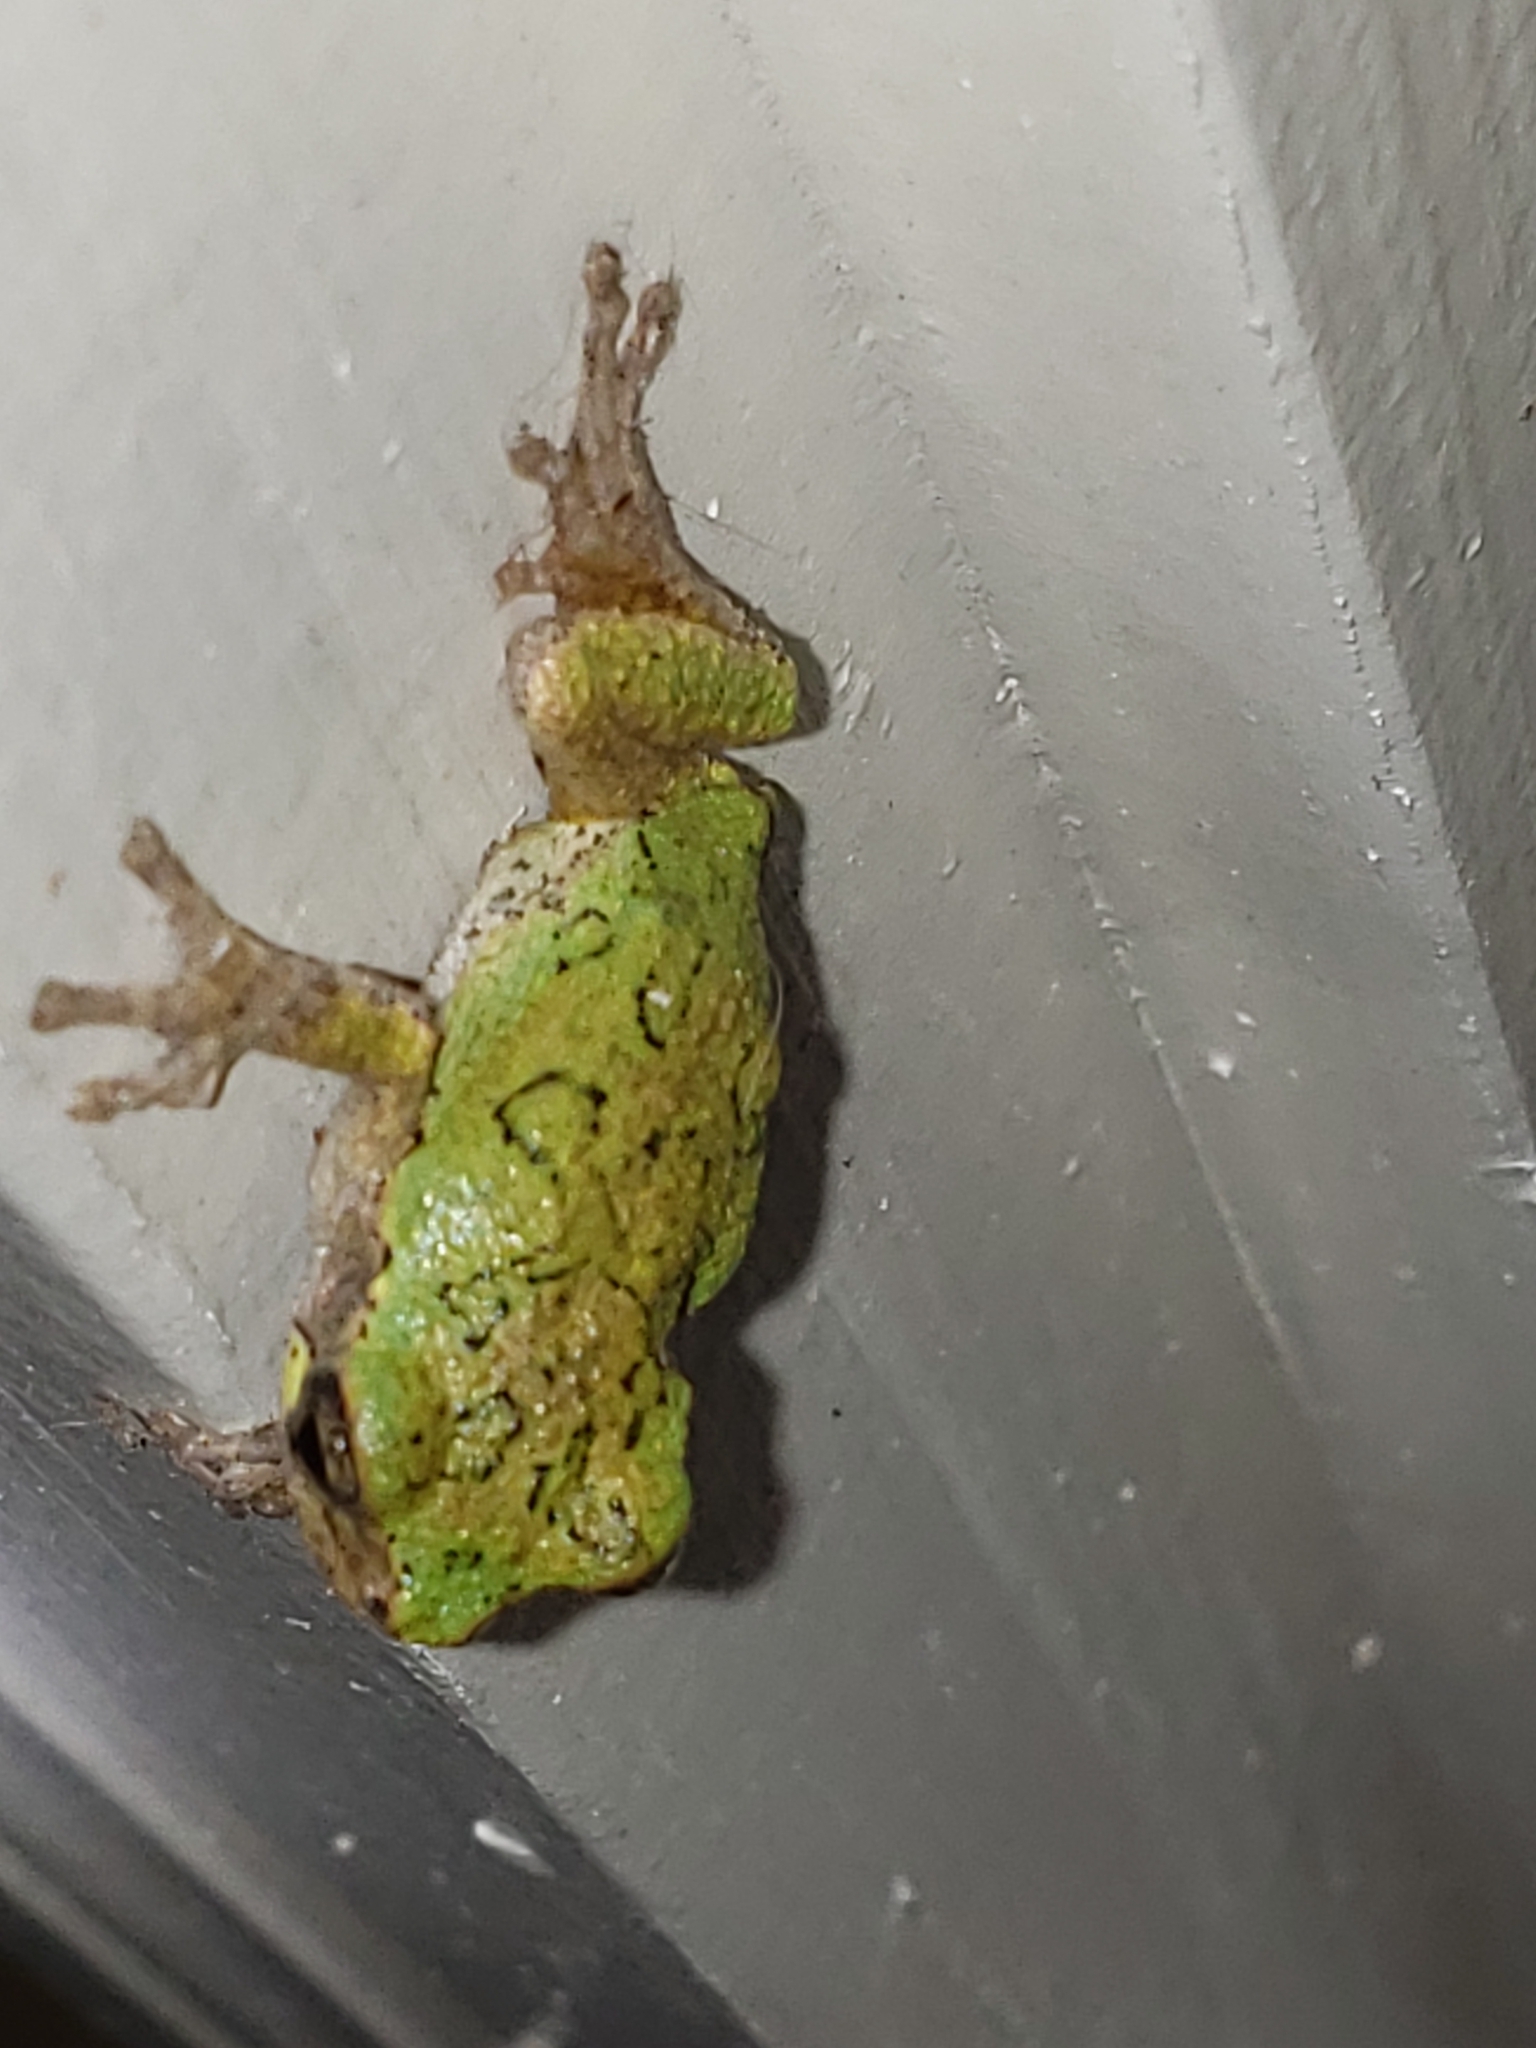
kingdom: Animalia
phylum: Chordata
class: Amphibia
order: Anura
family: Hylidae
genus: Hyla
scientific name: Hyla
